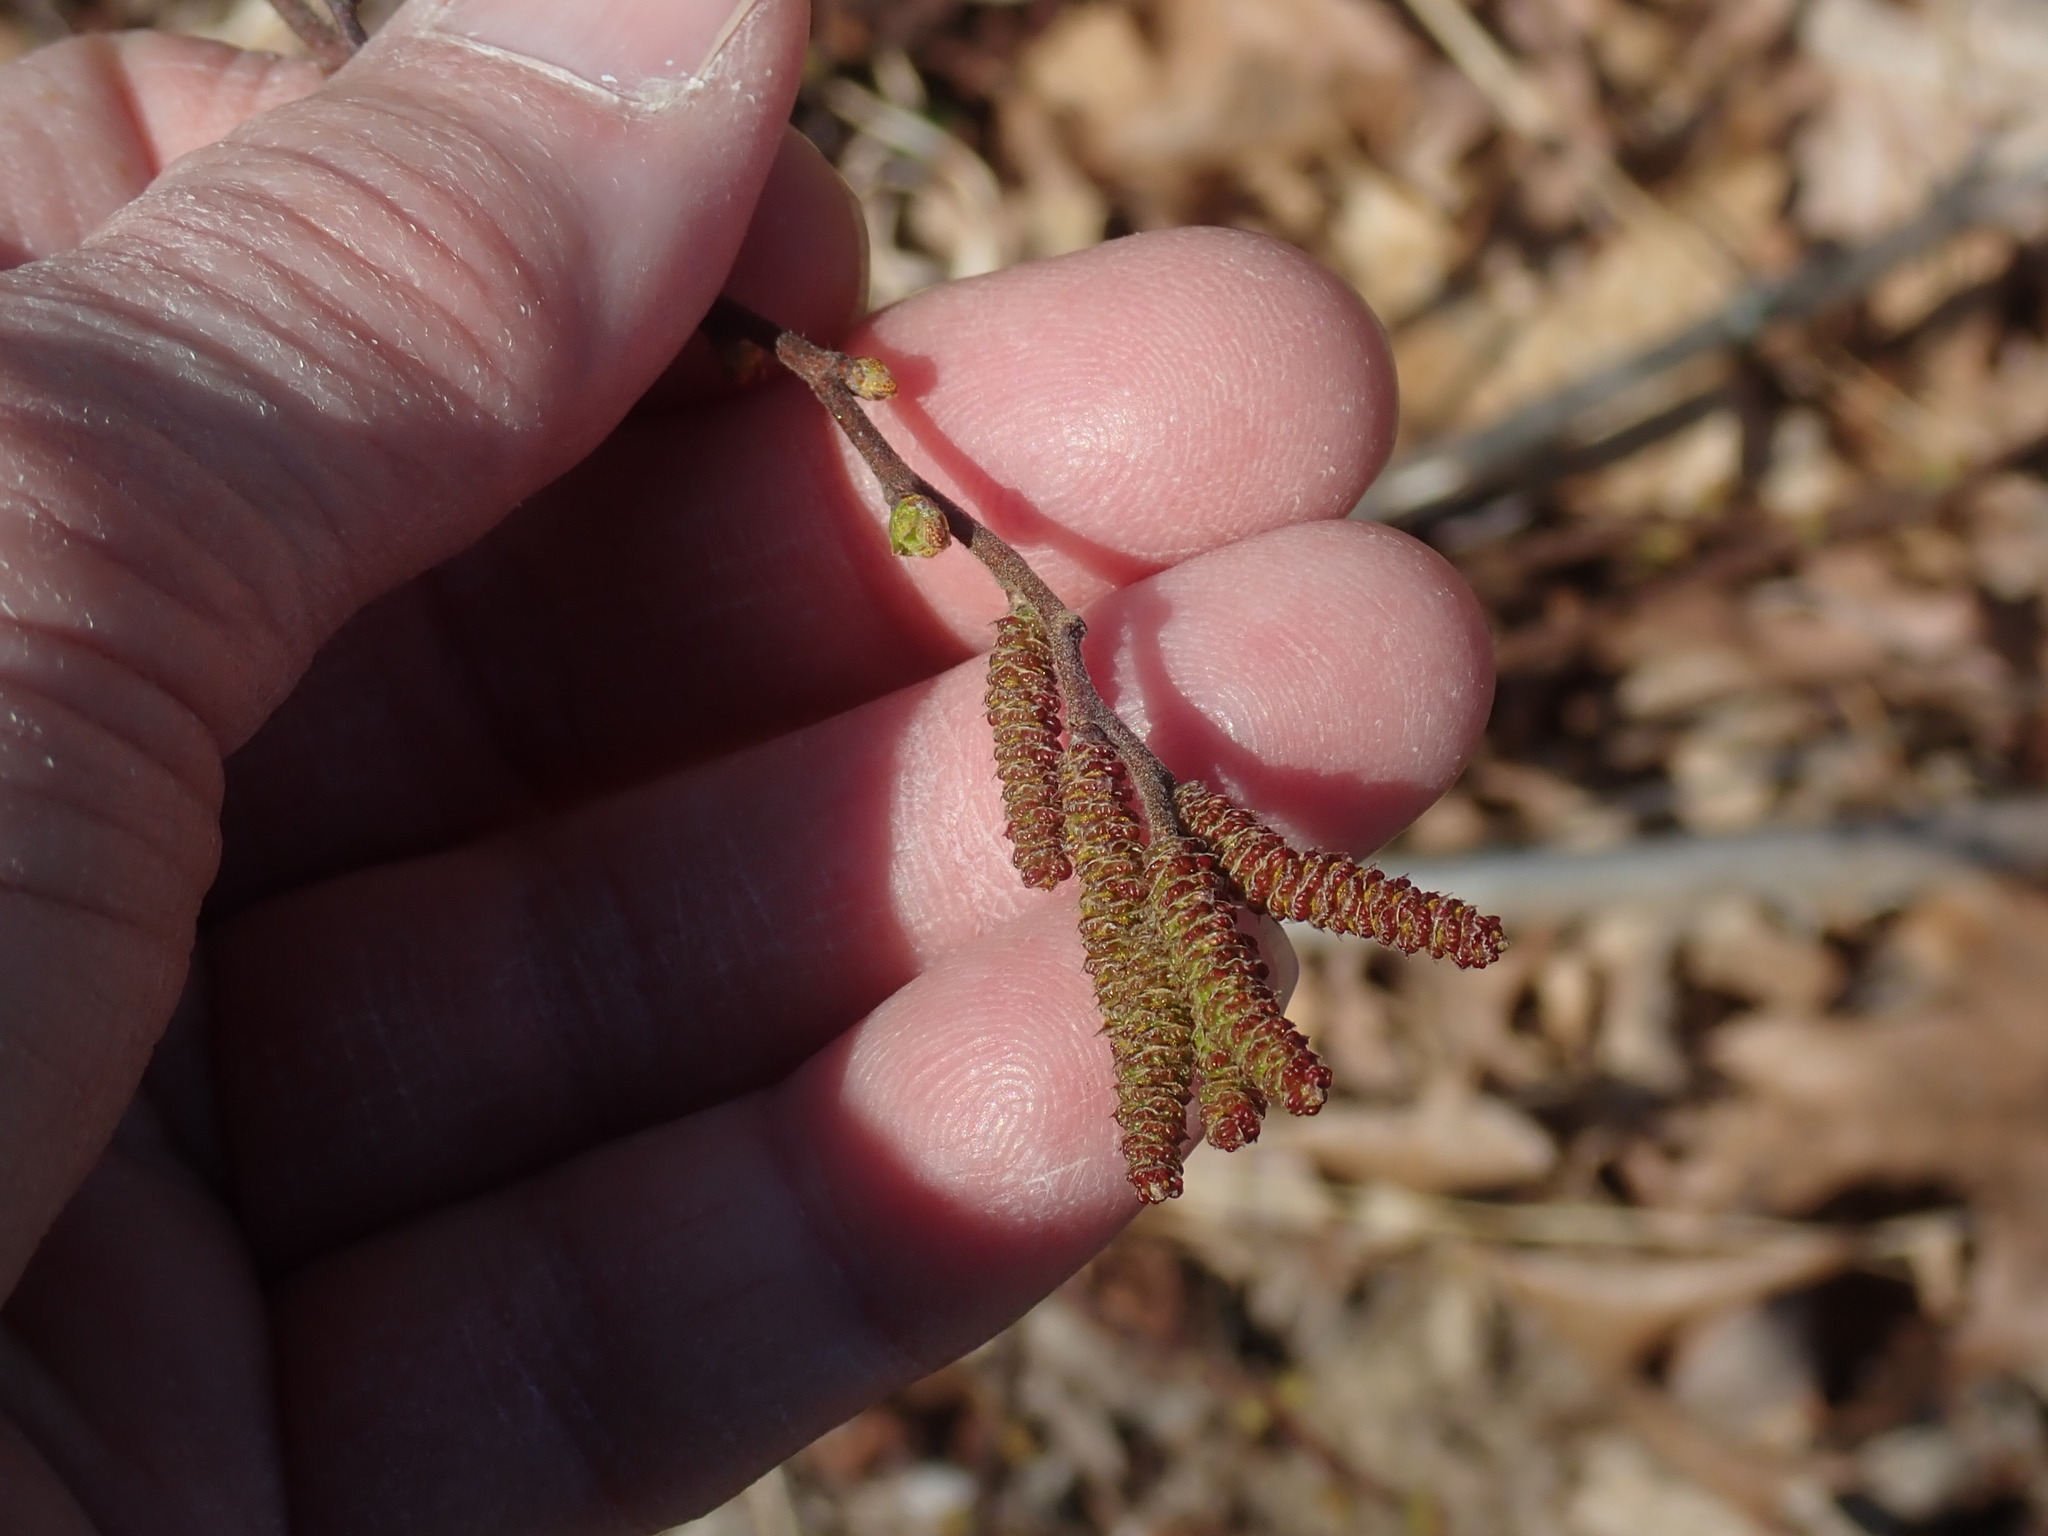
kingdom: Plantae
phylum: Tracheophyta
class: Magnoliopsida
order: Fagales
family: Myricaceae
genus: Comptonia
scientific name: Comptonia peregrina
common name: Sweet-fern
